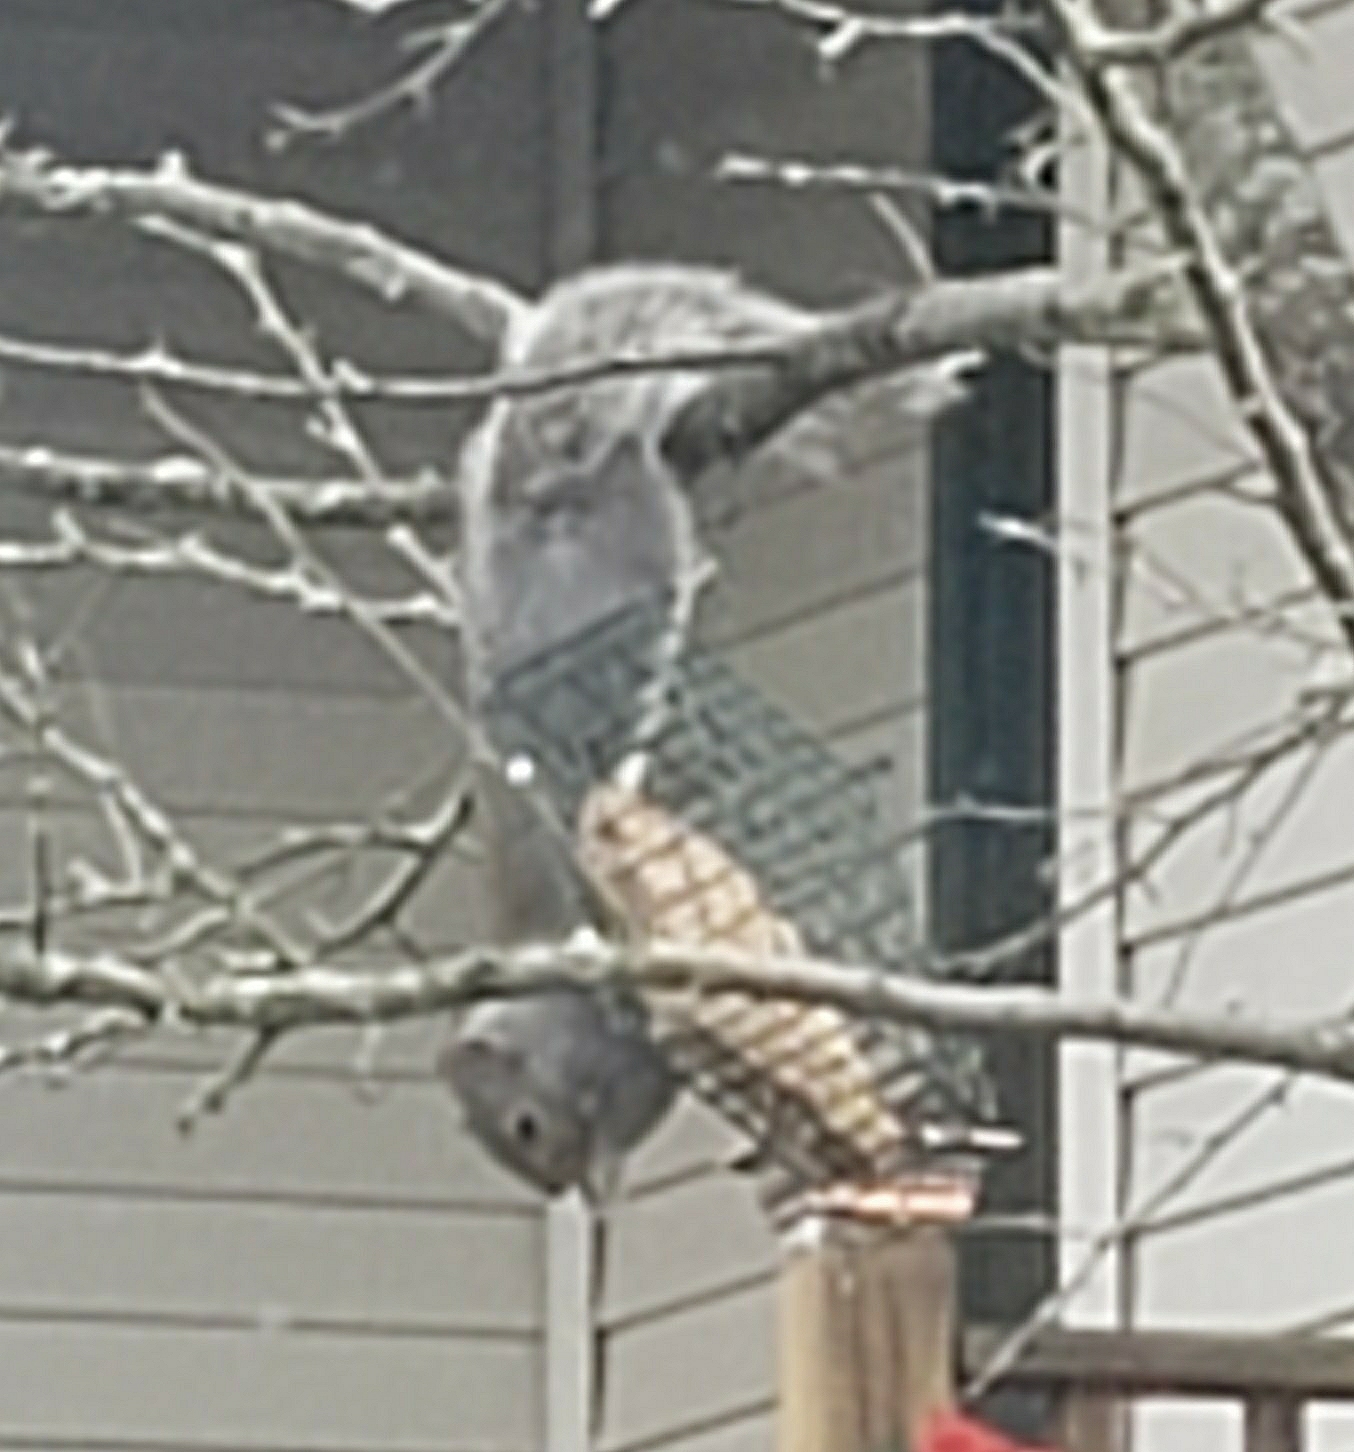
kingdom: Animalia
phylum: Chordata
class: Mammalia
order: Rodentia
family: Sciuridae
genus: Sciurus
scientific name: Sciurus carolinensis
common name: Eastern gray squirrel
